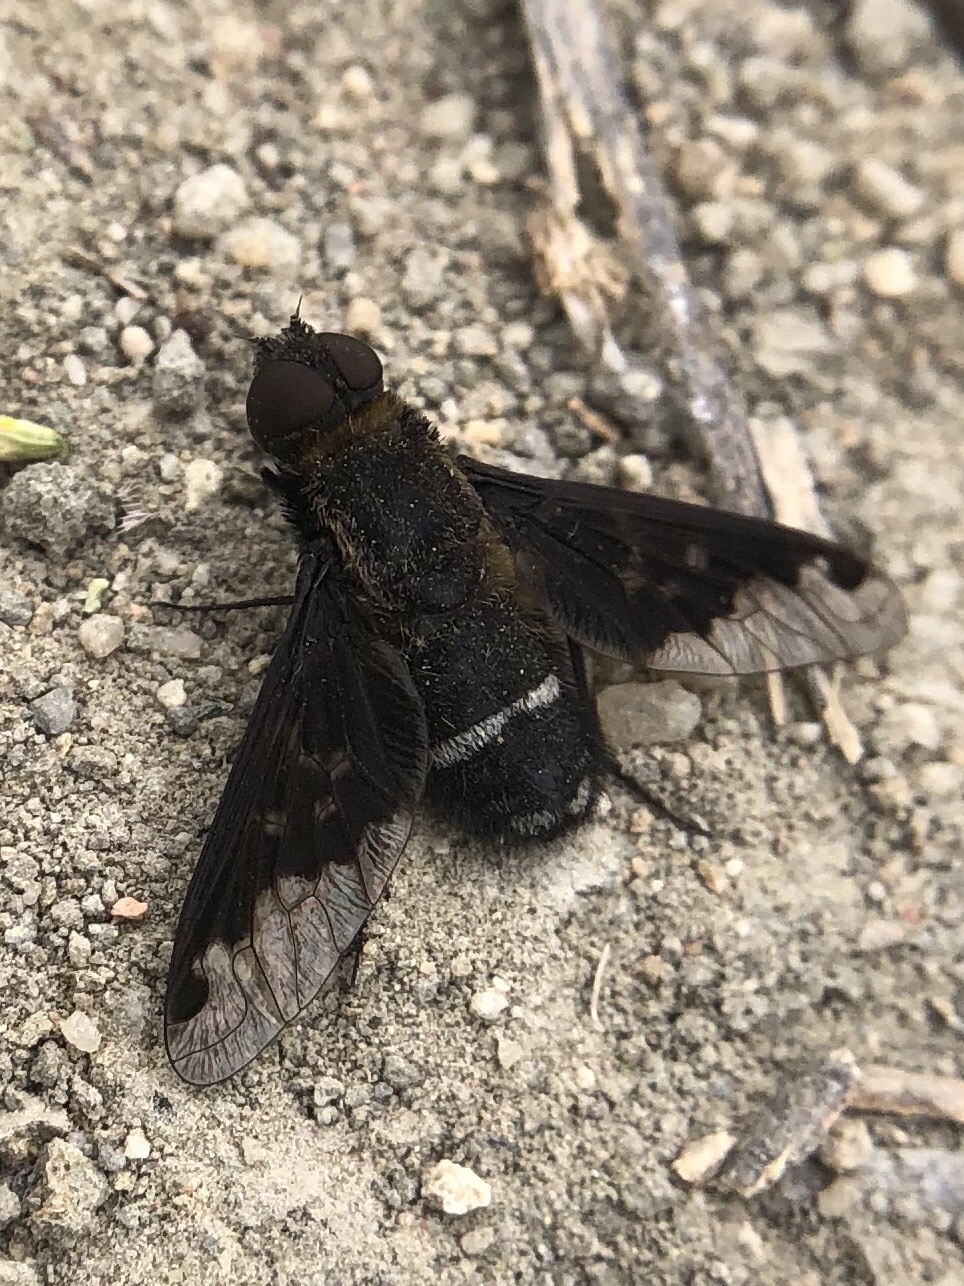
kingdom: Animalia
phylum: Arthropoda
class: Insecta
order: Diptera
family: Bombyliidae
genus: Hemipenthes
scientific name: Hemipenthes velutina
